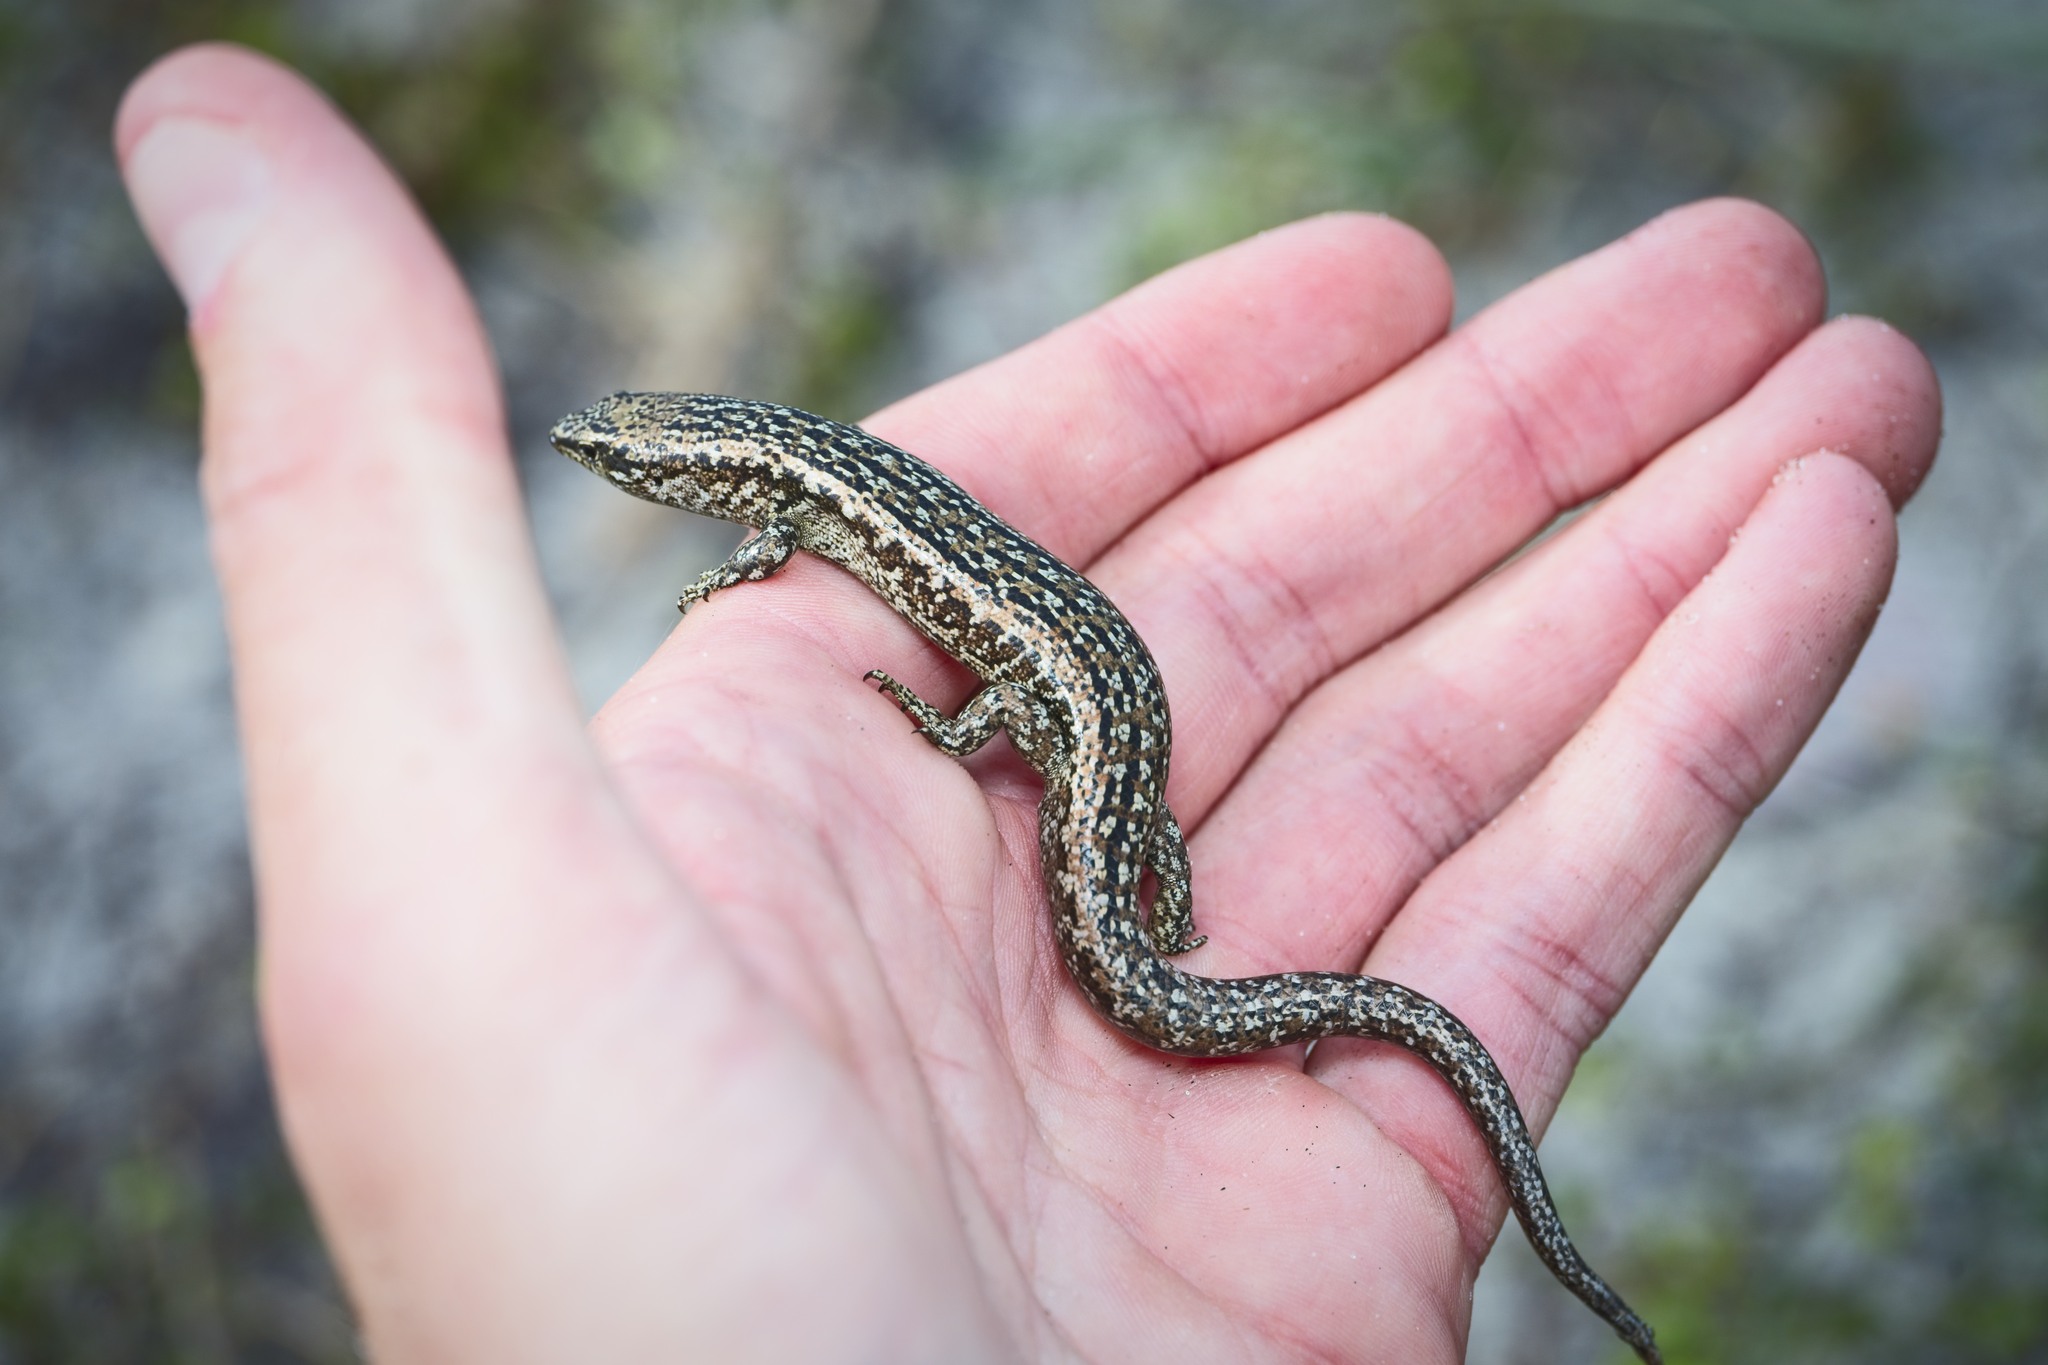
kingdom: Animalia
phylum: Chordata
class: Squamata
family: Scincidae
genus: Oligosoma
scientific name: Oligosoma smithi
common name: Shore skink
